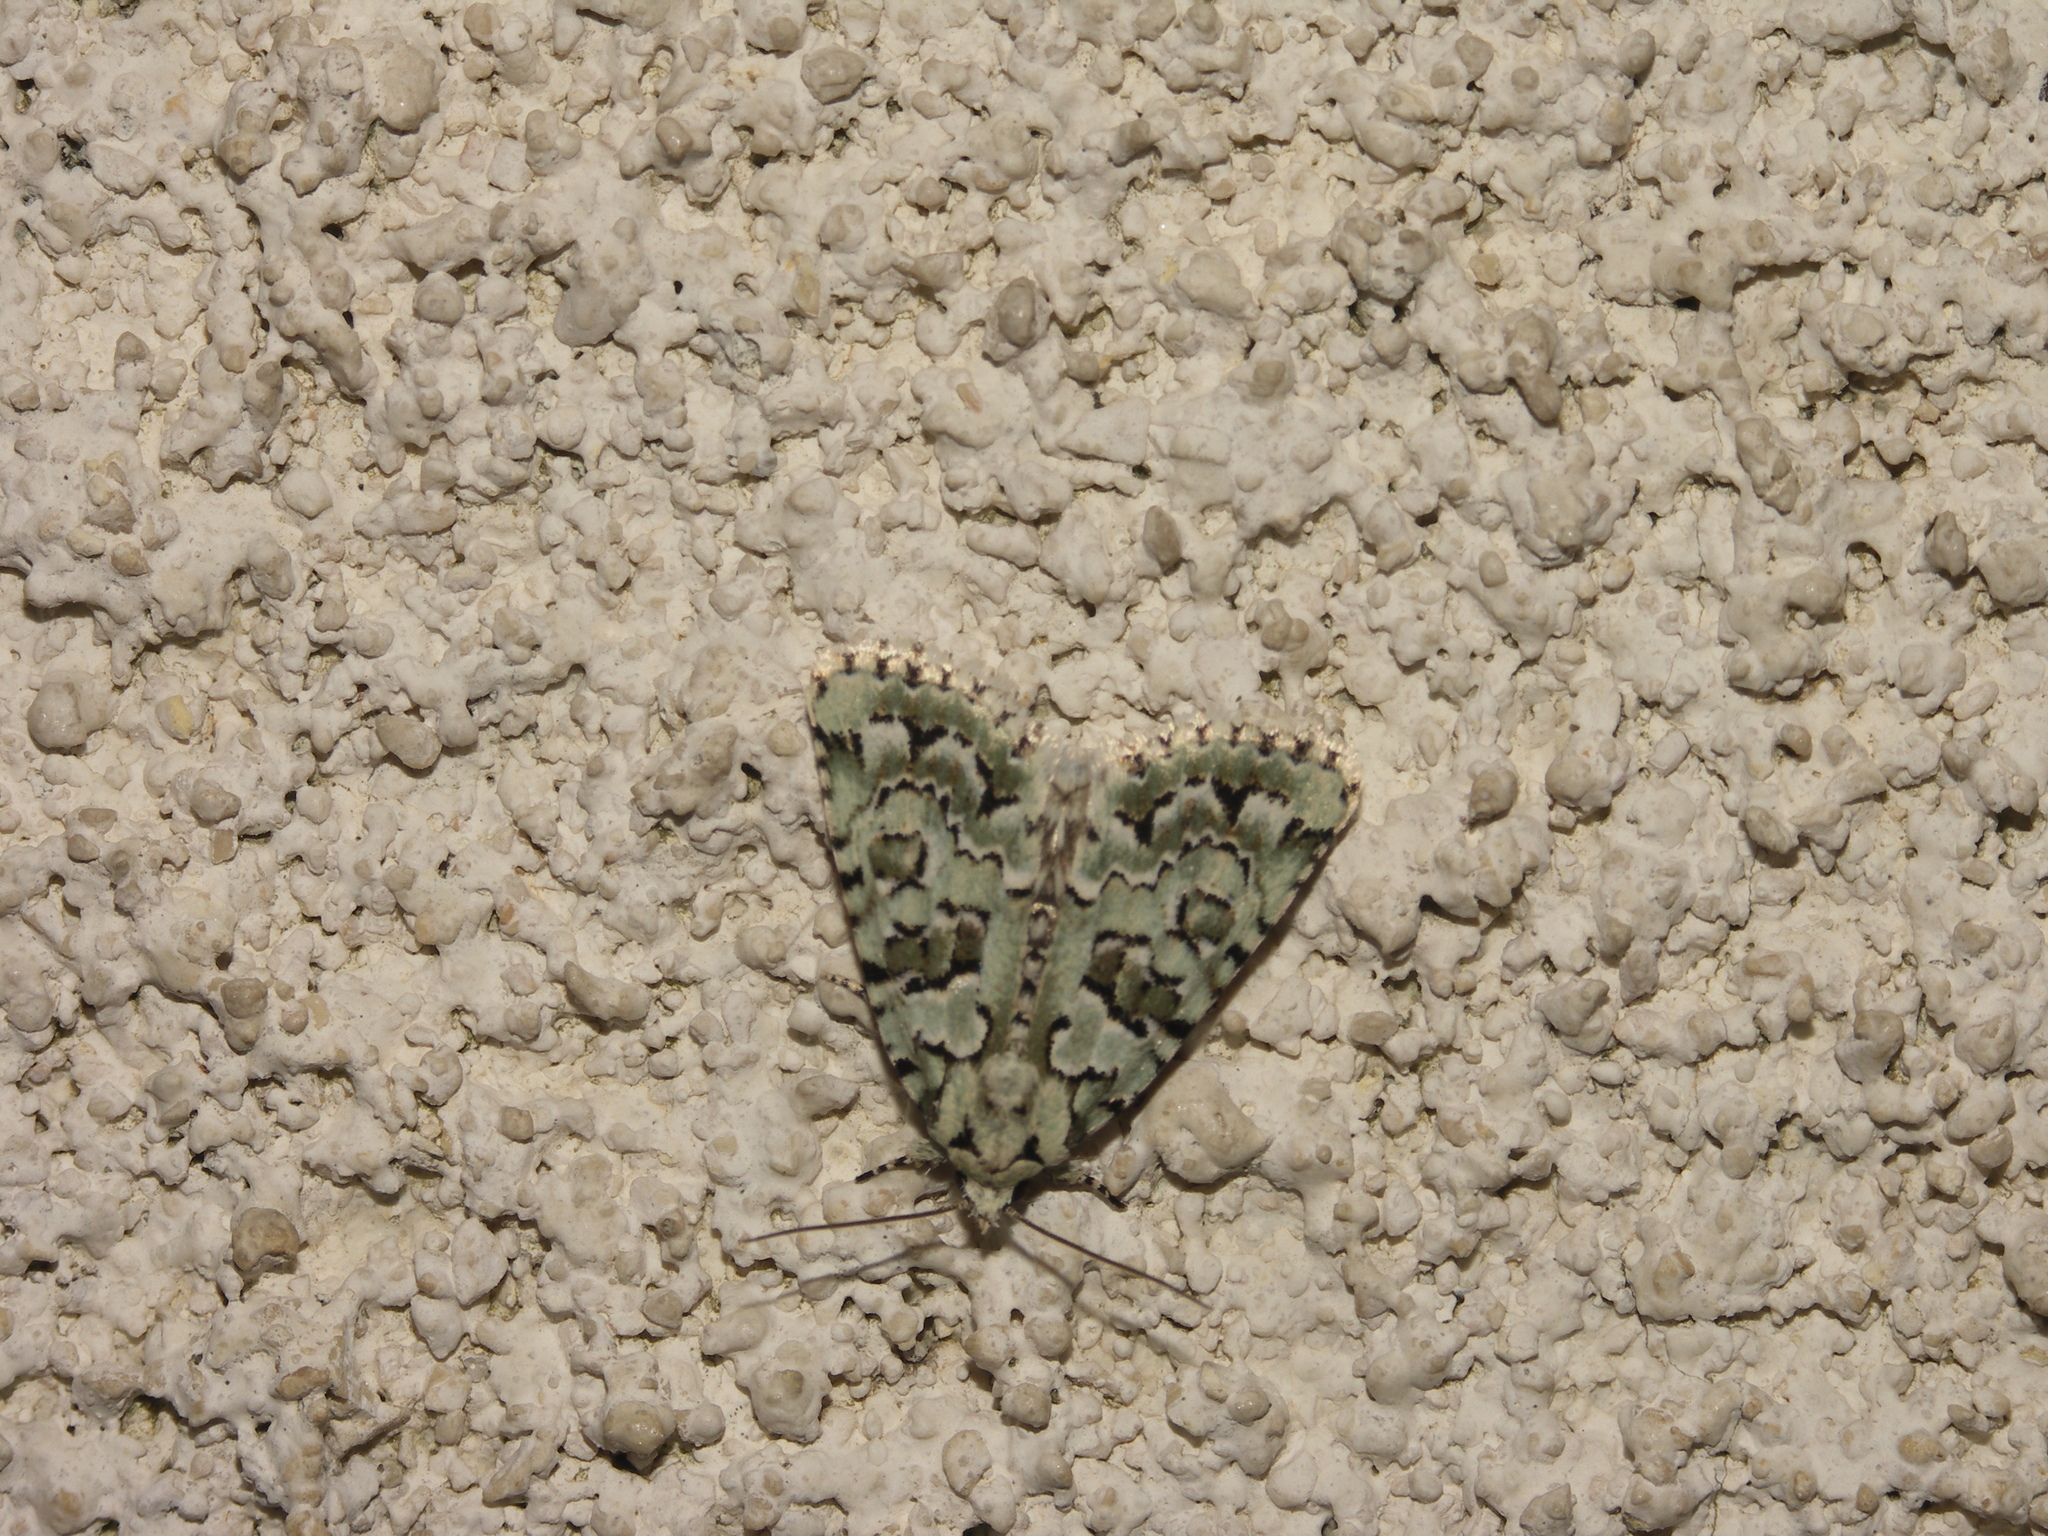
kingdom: Animalia
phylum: Arthropoda
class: Insecta
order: Lepidoptera
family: Noctuidae
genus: Nyctobrya
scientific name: Nyctobrya muralis
